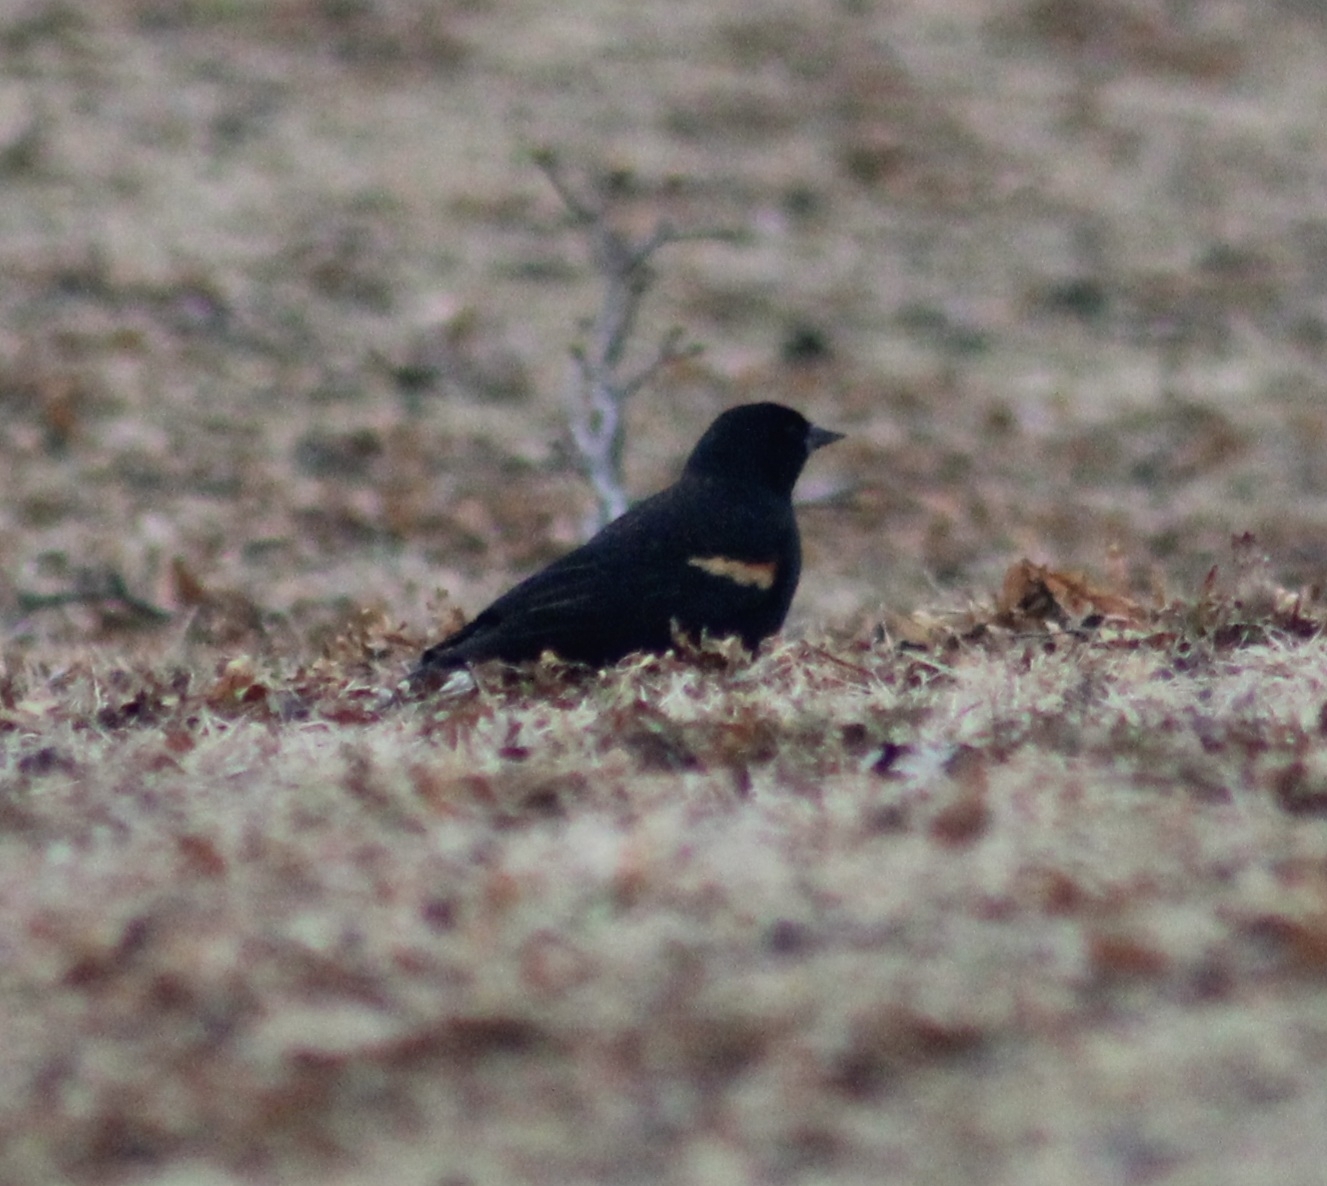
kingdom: Animalia
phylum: Chordata
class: Aves
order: Passeriformes
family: Icteridae
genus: Agelaius
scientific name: Agelaius phoeniceus
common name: Red-winged blackbird
